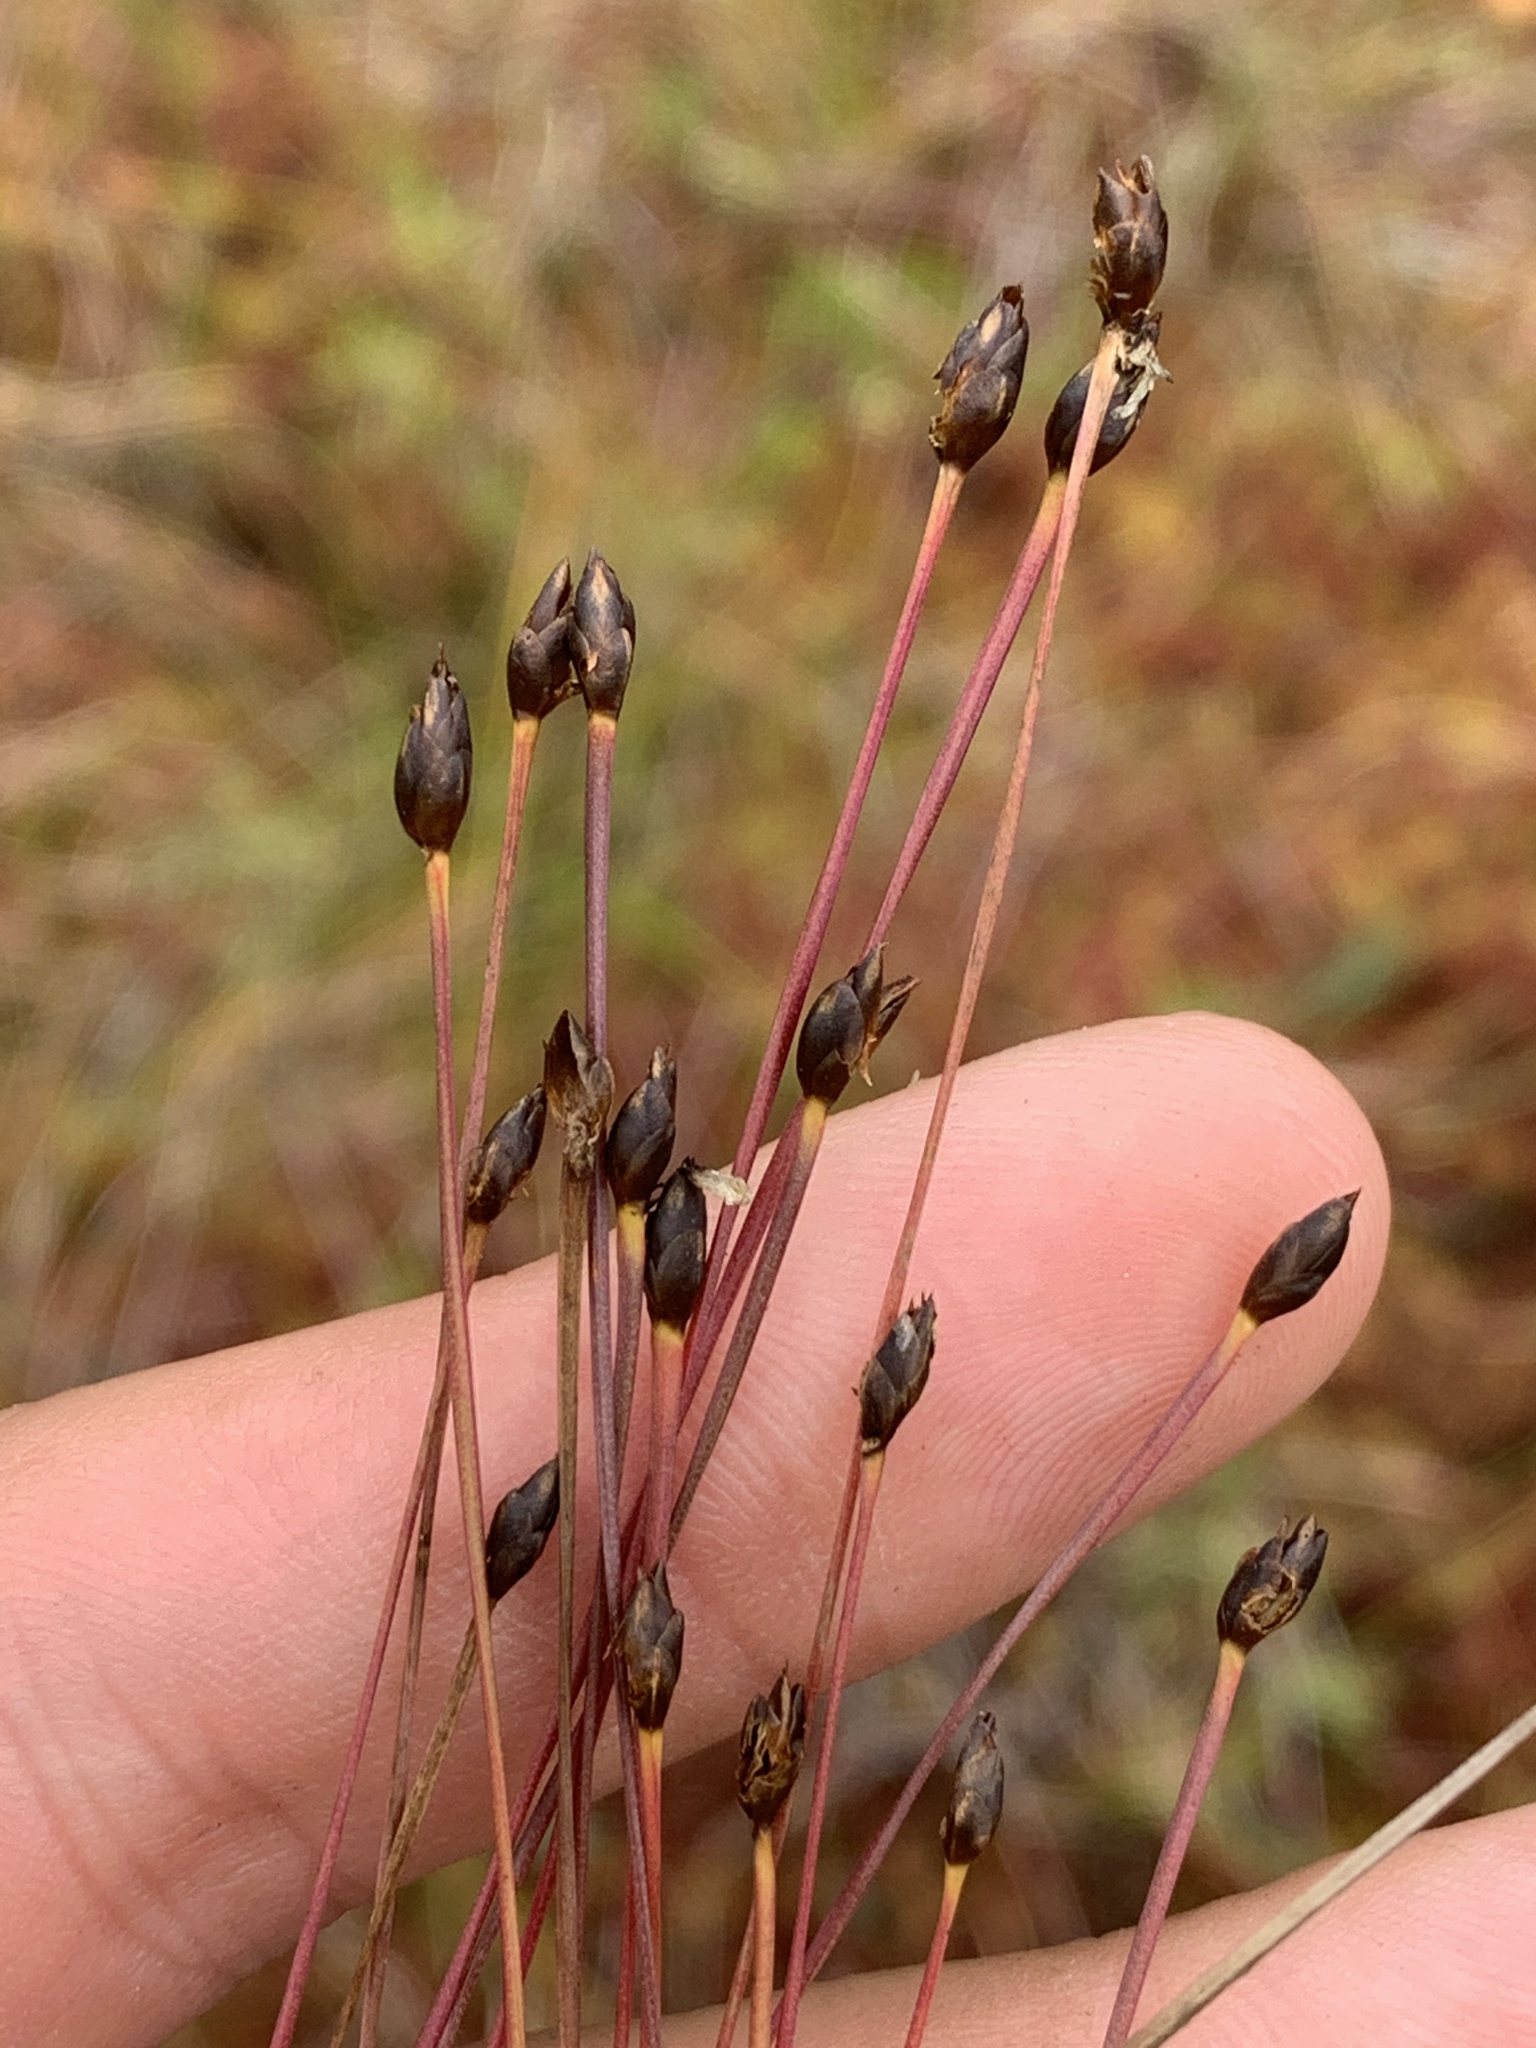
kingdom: Plantae
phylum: Tracheophyta
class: Liliopsida
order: Poales
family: Xyridaceae
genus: Xyris
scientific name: Xyris montana
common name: Northern yellow-eyed-grass
